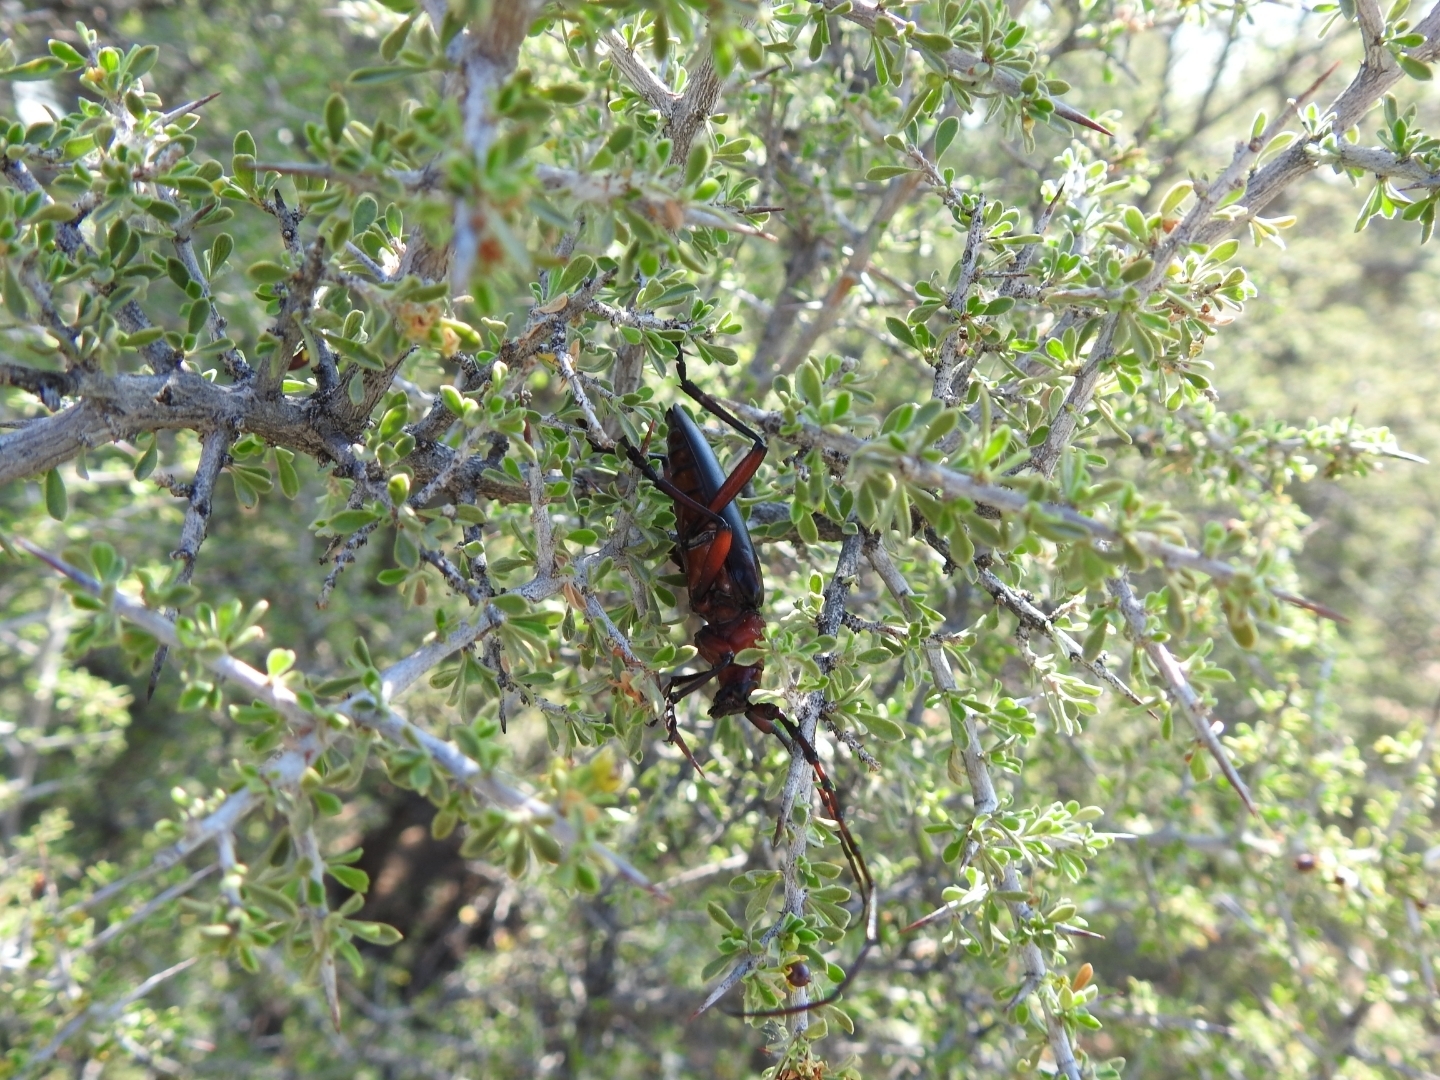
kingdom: Animalia
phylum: Arthropoda
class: Insecta
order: Coleoptera
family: Cerambycidae
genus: Stenaspis
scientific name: Stenaspis solitaria
